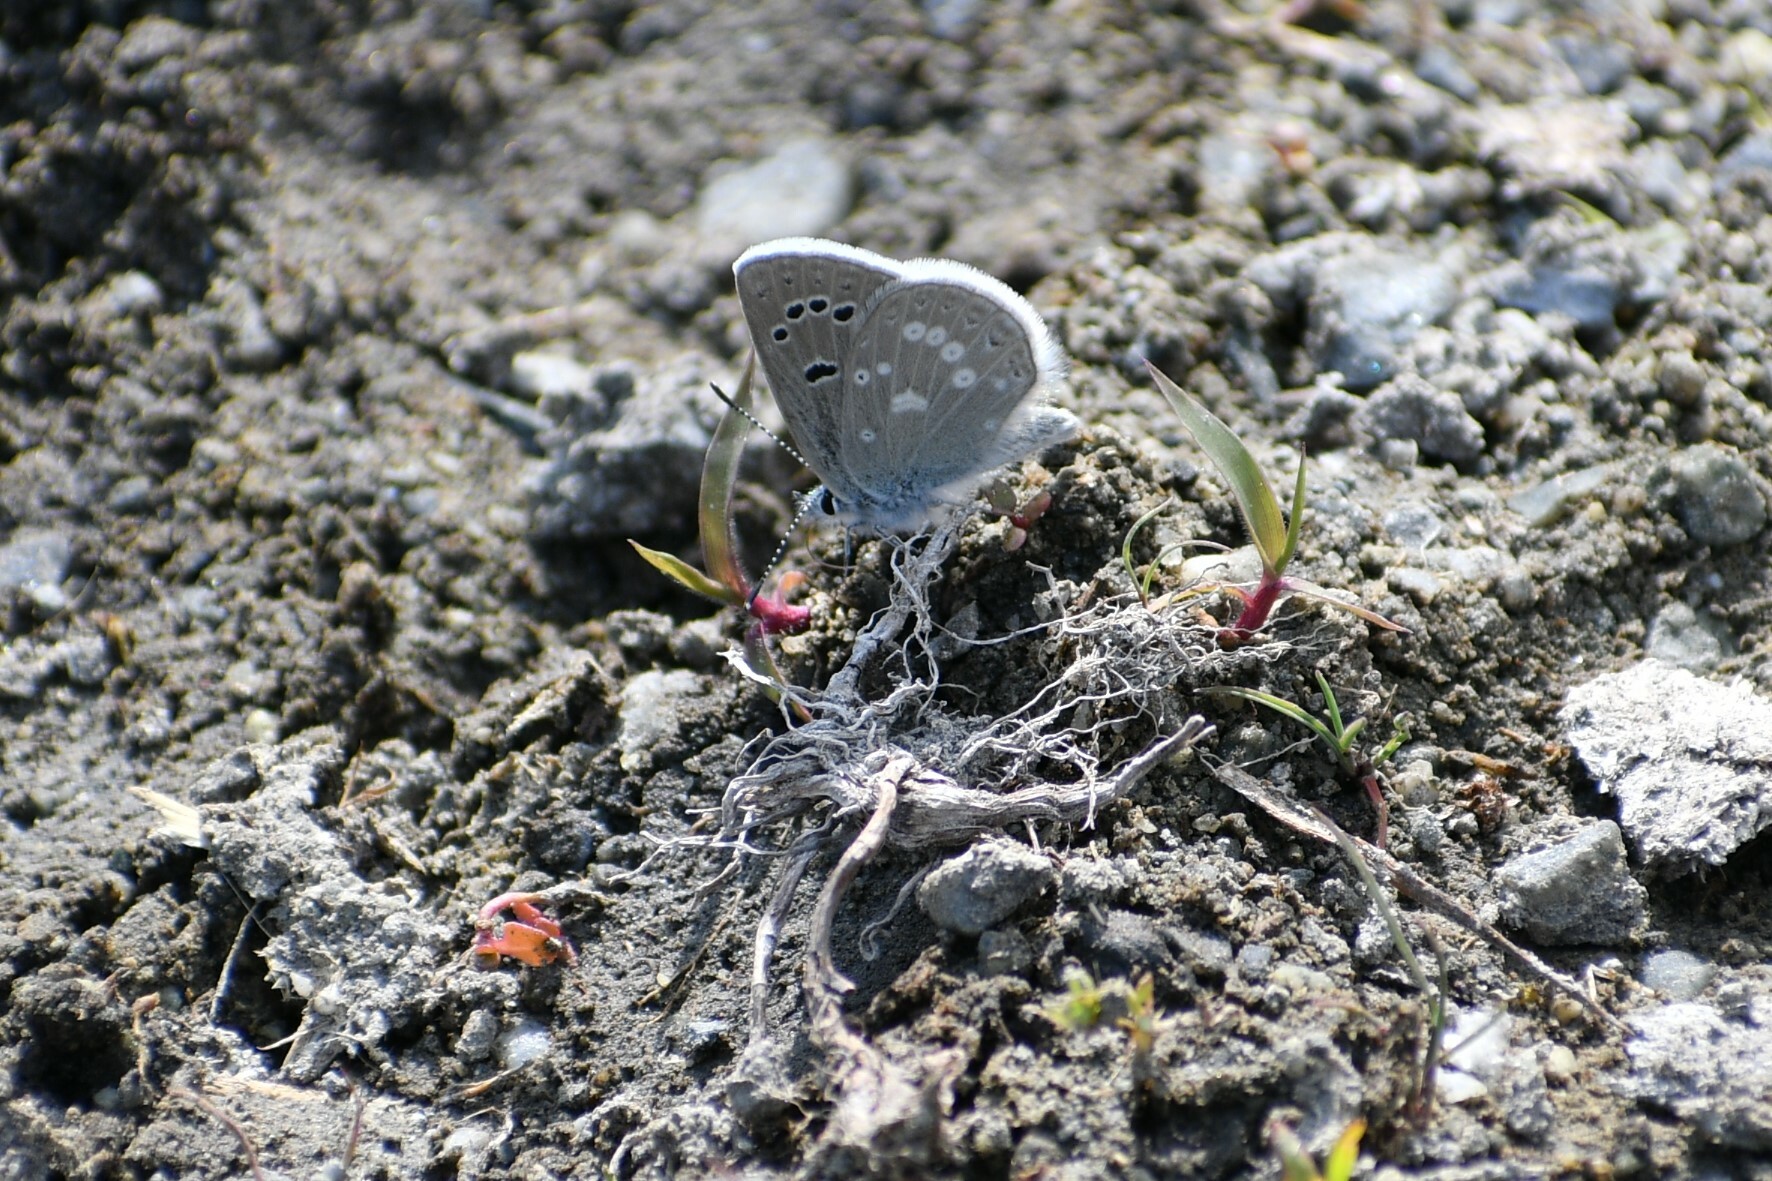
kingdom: Animalia
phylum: Arthropoda
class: Insecta
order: Lepidoptera
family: Lycaenidae
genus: Icaricia
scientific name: Icaricia icarioides
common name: Boisduval's blue
